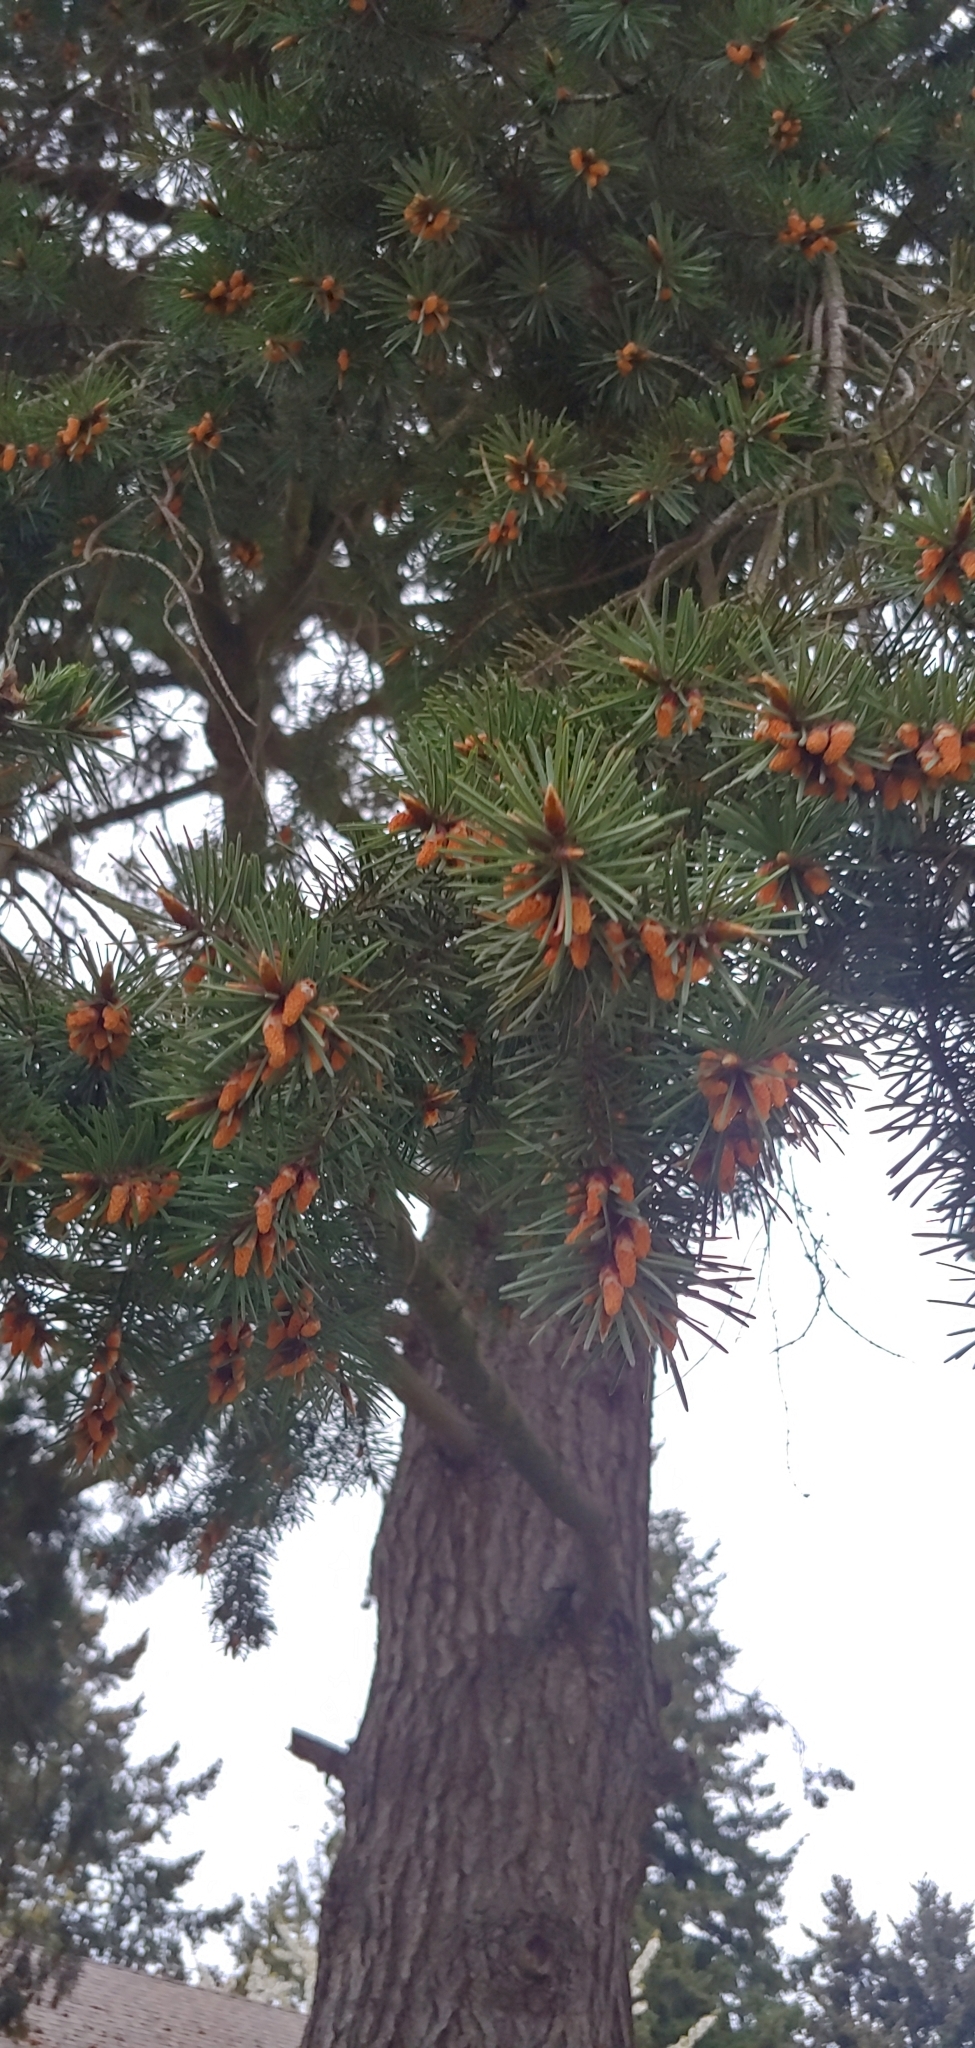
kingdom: Plantae
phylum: Tracheophyta
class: Pinopsida
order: Pinales
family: Pinaceae
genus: Pseudotsuga
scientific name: Pseudotsuga menziesii
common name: Douglas fir
